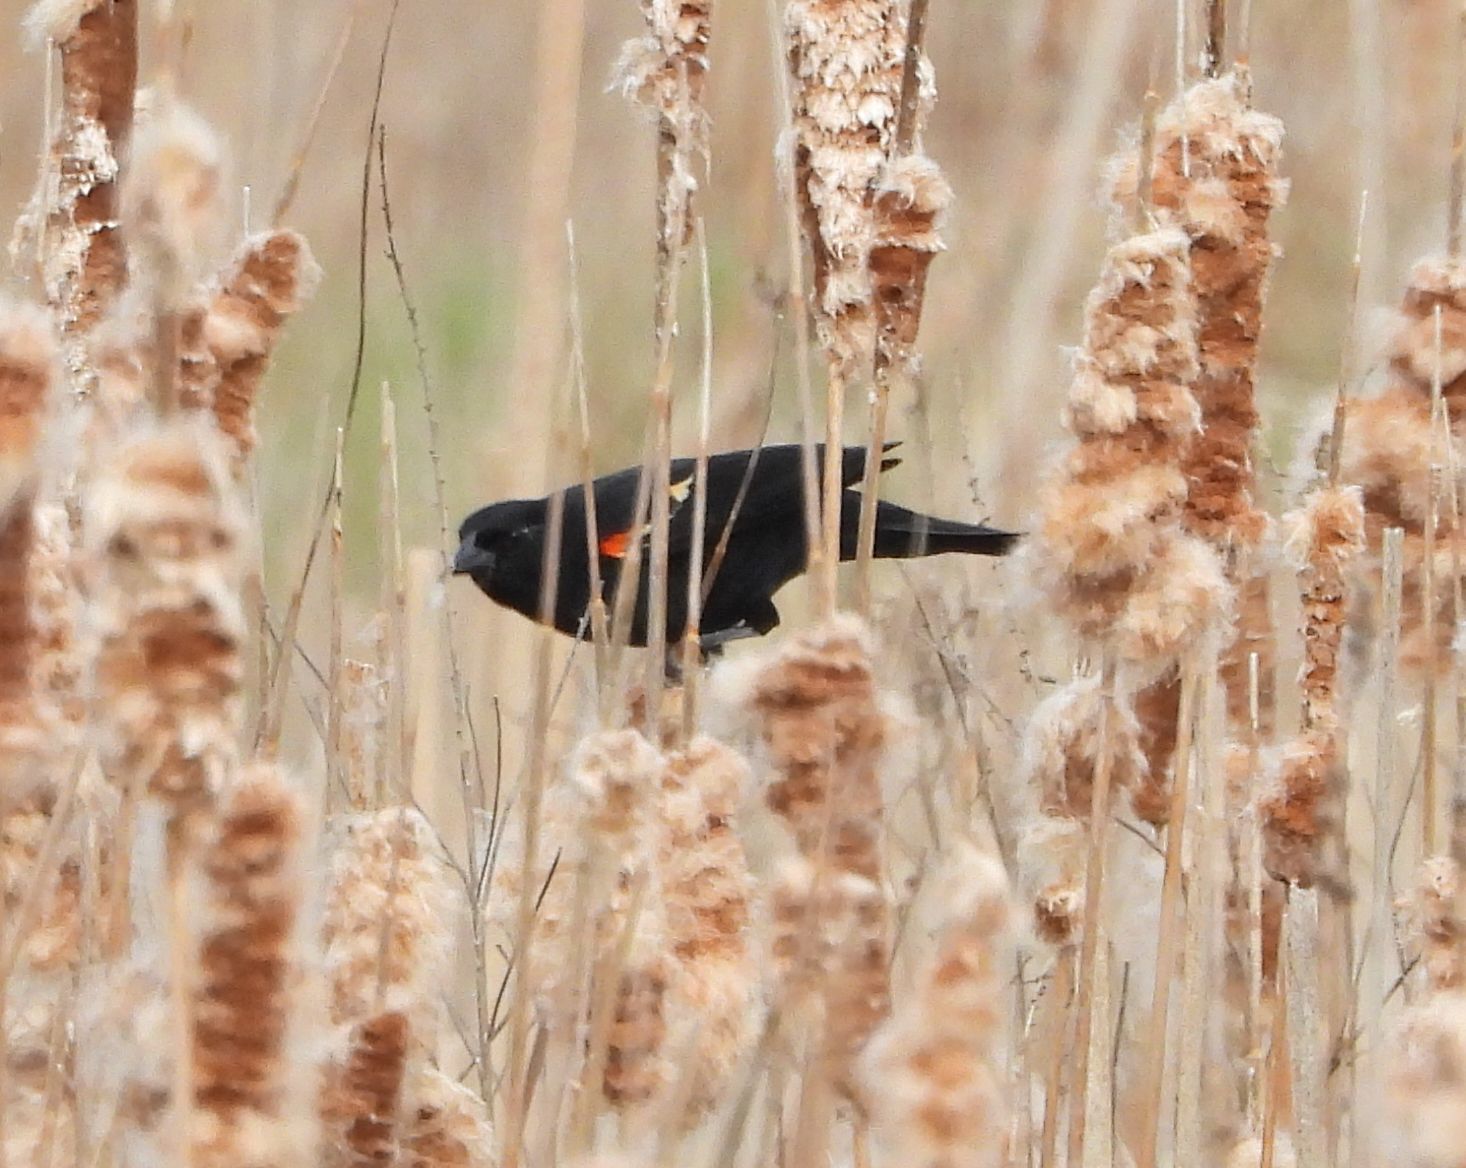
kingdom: Animalia
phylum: Chordata
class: Aves
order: Passeriformes
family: Icteridae
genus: Agelaius
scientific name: Agelaius phoeniceus
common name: Red-winged blackbird
